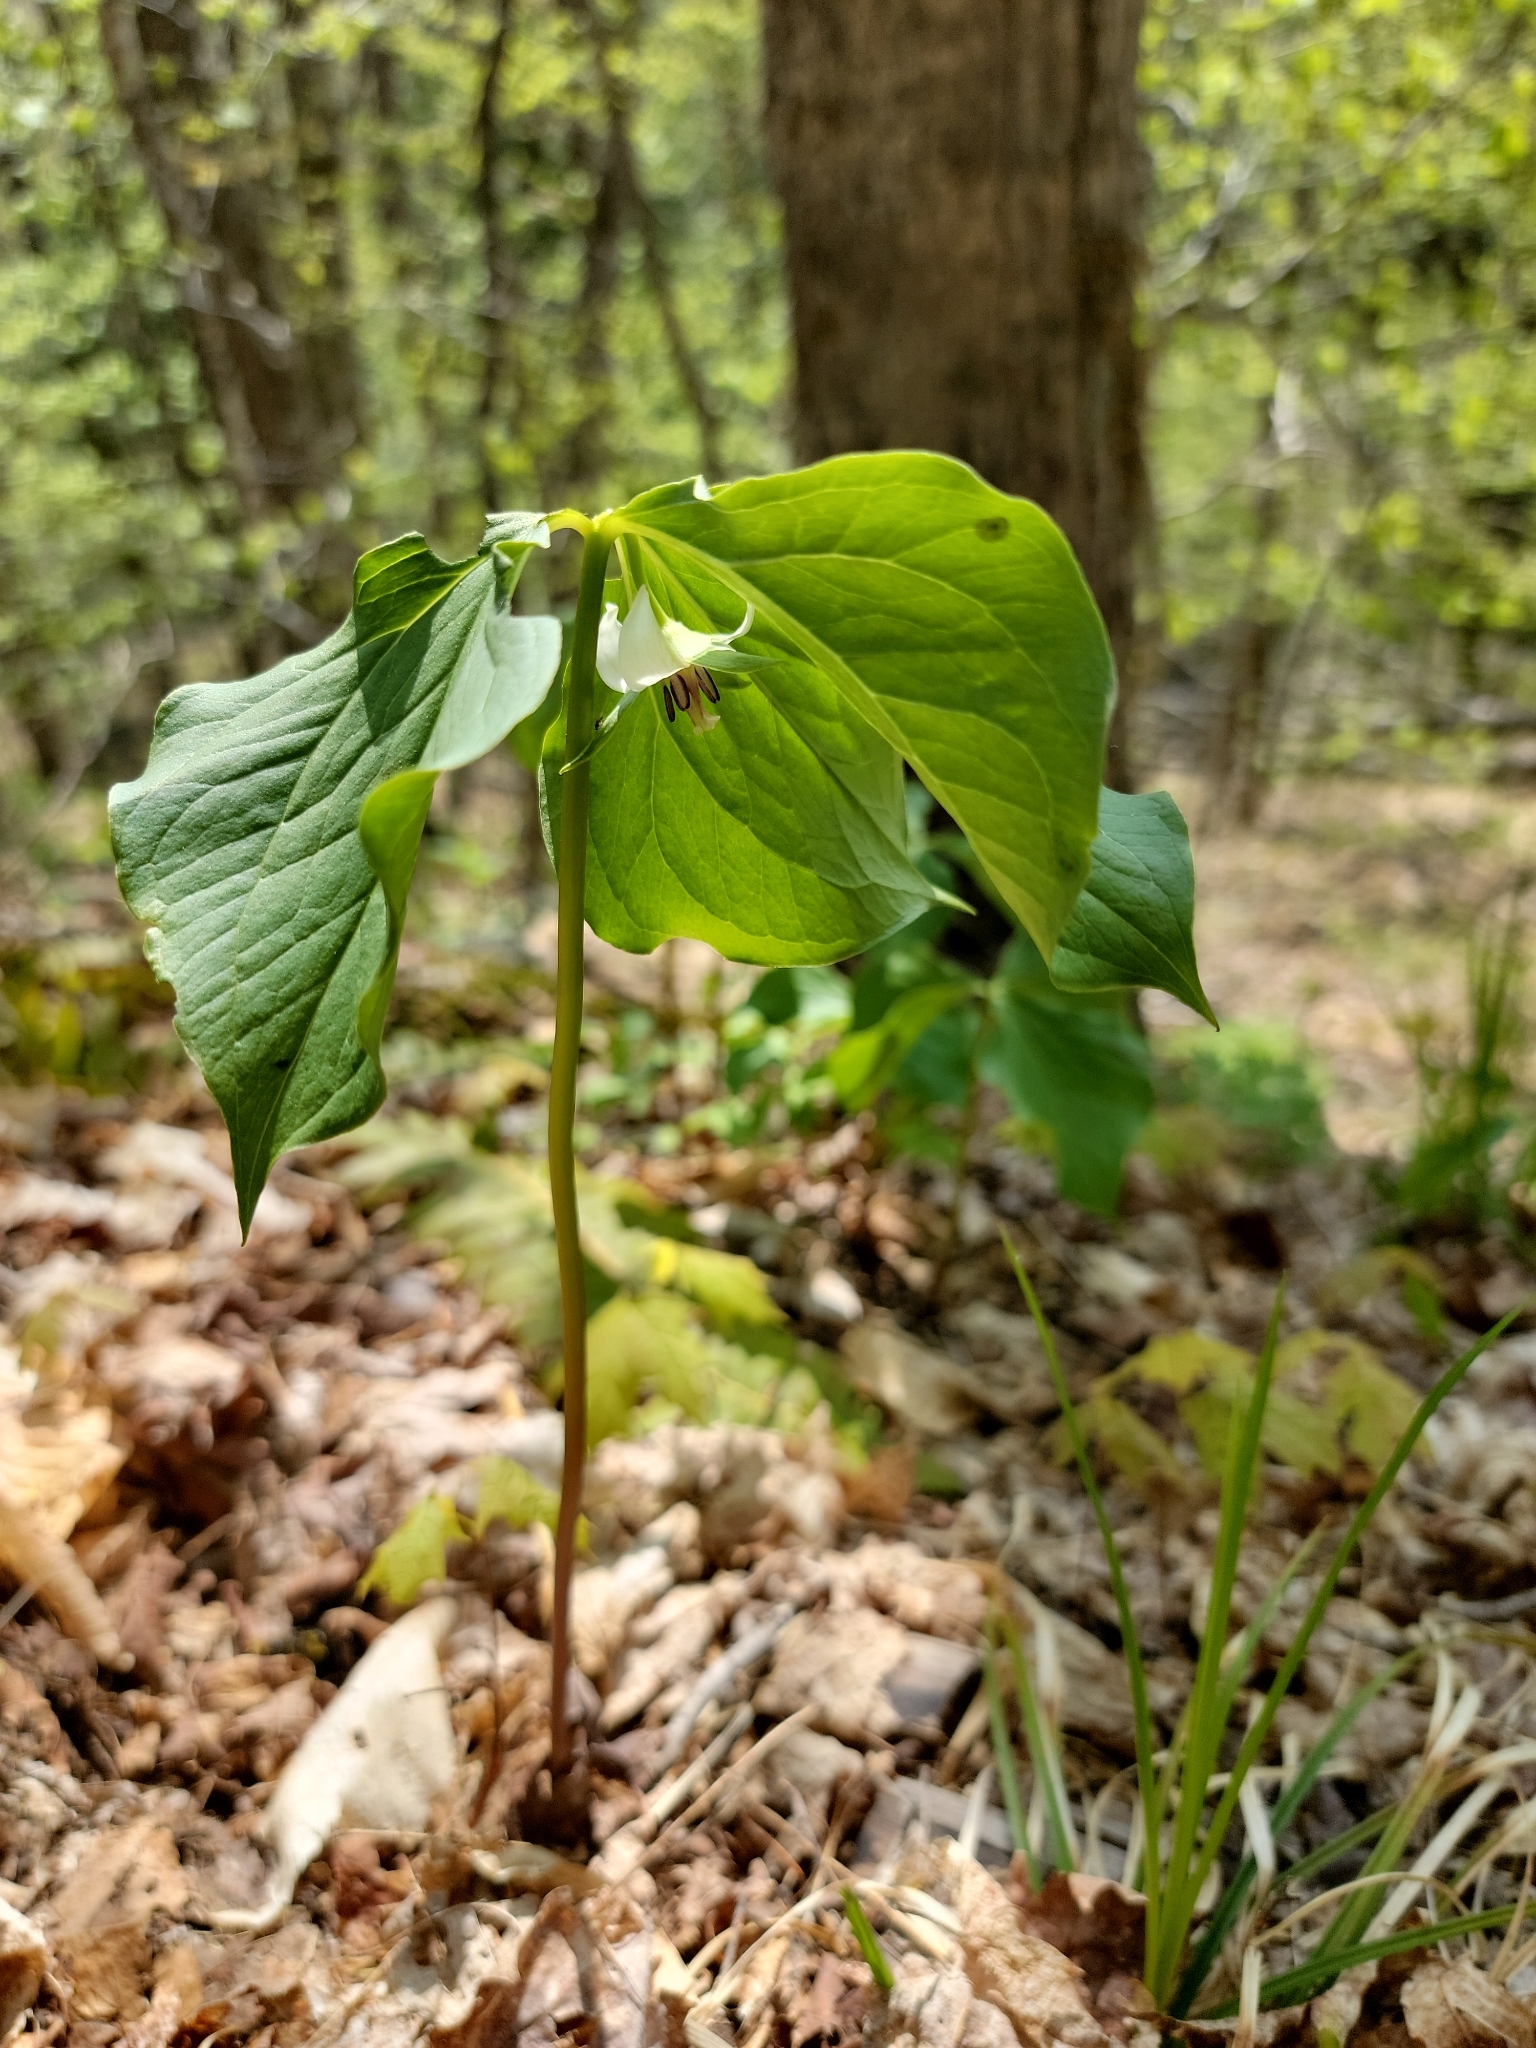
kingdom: Plantae
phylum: Tracheophyta
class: Liliopsida
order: Liliales
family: Melanthiaceae
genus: Trillium
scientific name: Trillium cernuum
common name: Nodding trillium
